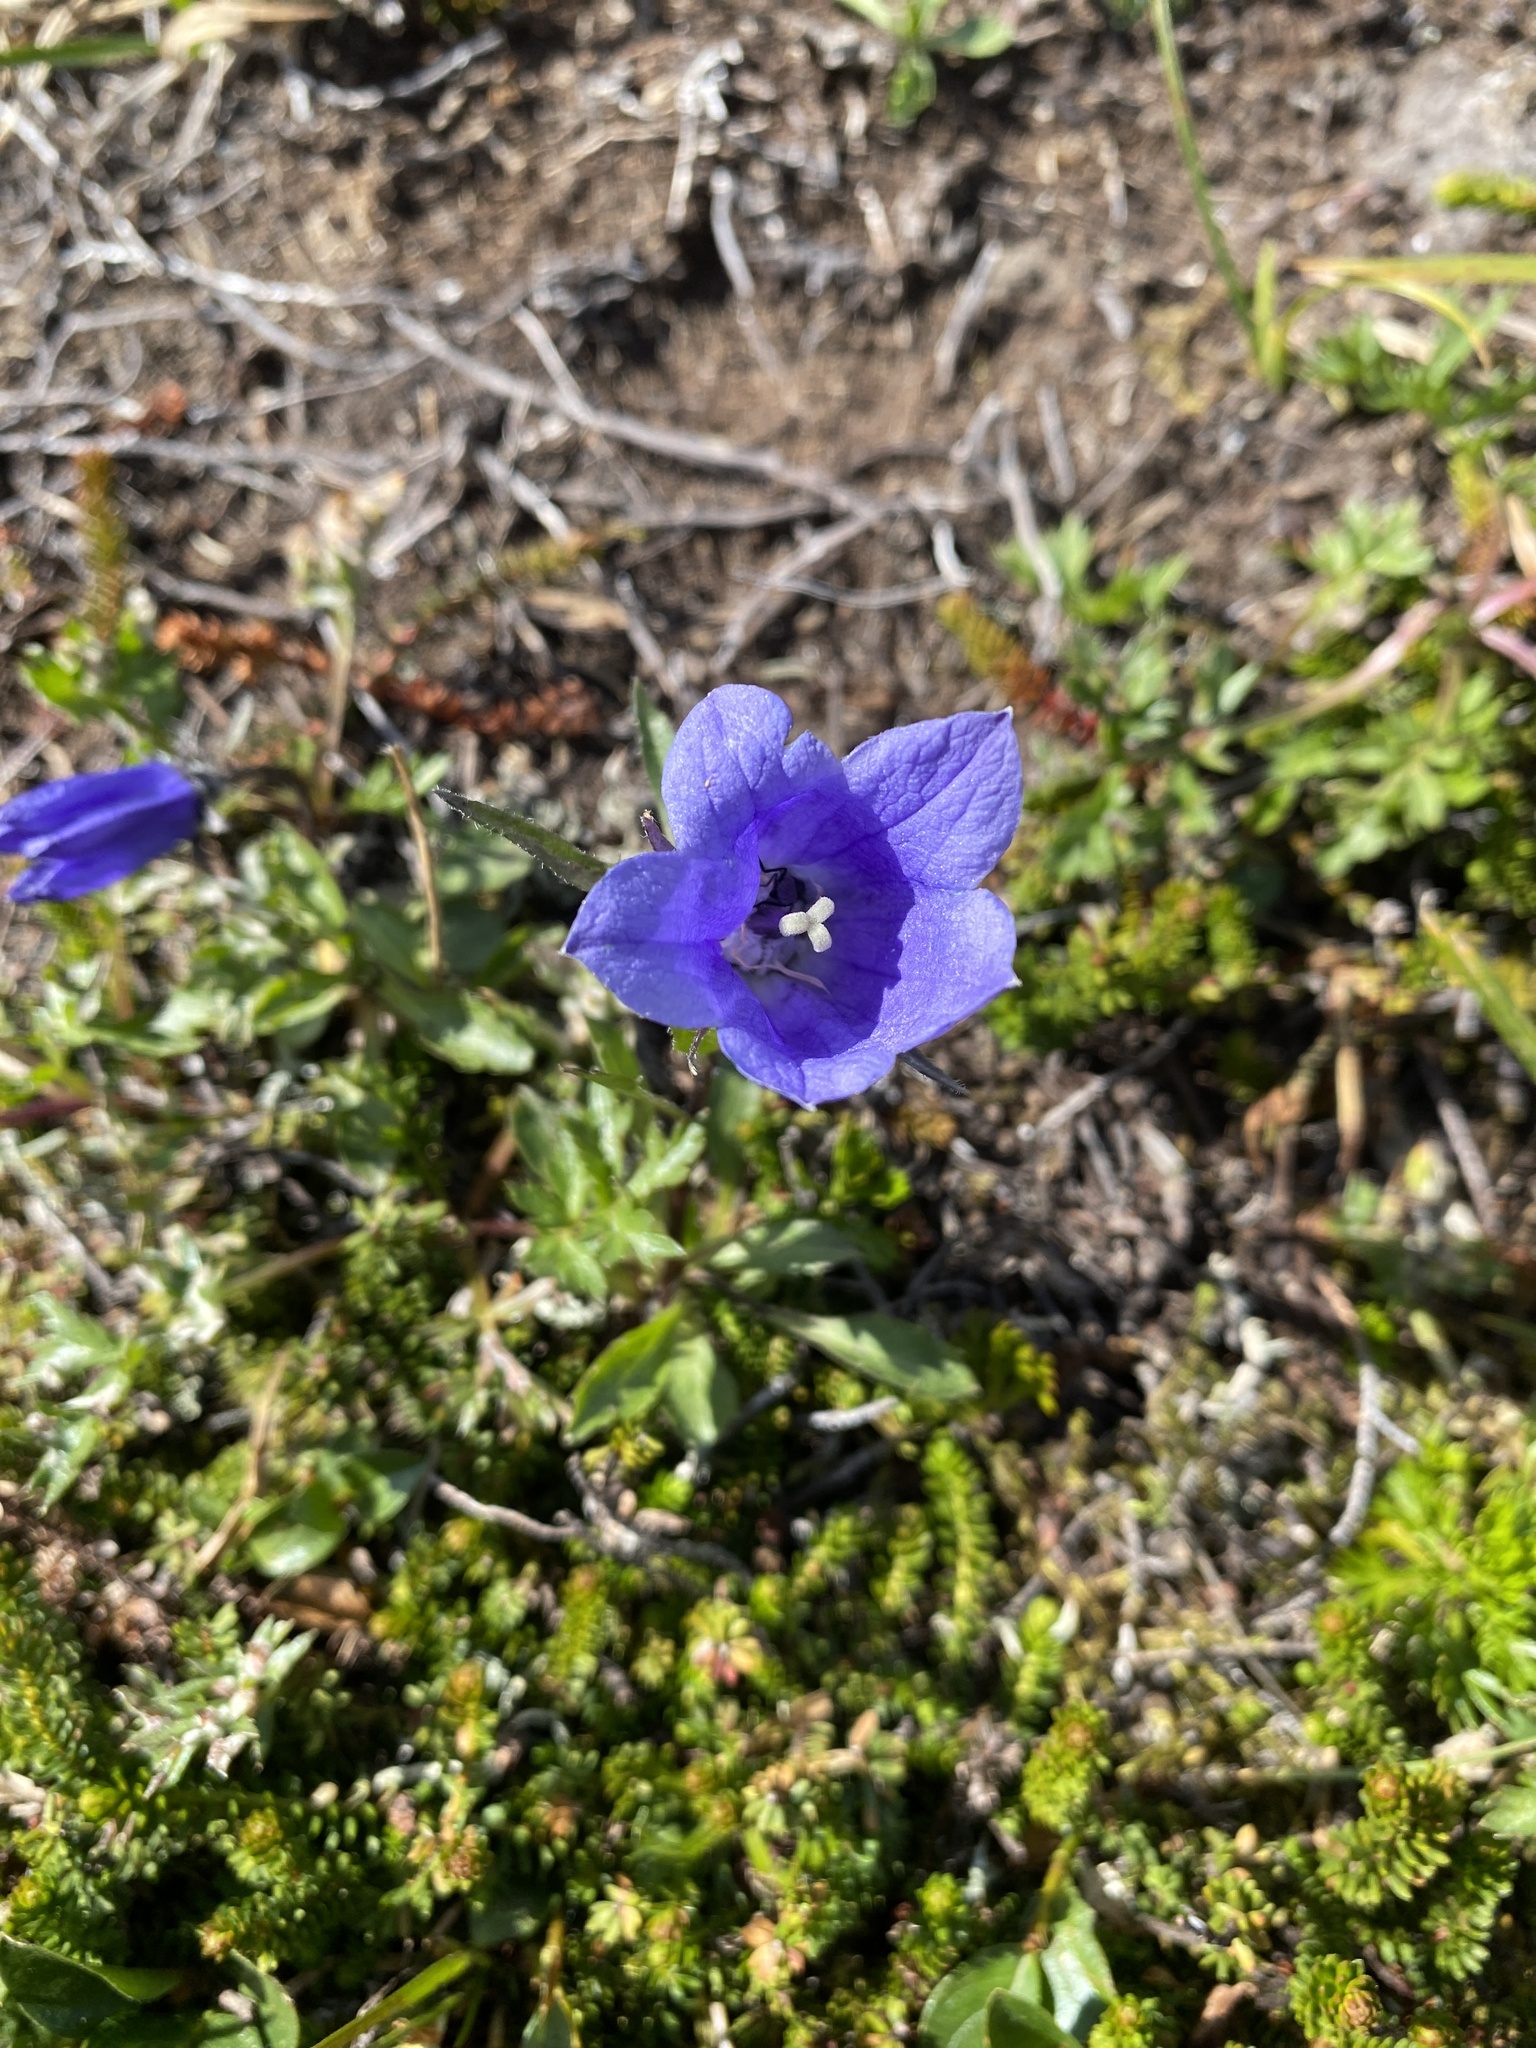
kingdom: Plantae
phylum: Tracheophyta
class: Magnoliopsida
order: Asterales
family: Campanulaceae
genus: Campanula
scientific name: Campanula lasiocarpa
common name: Mountain harebell
